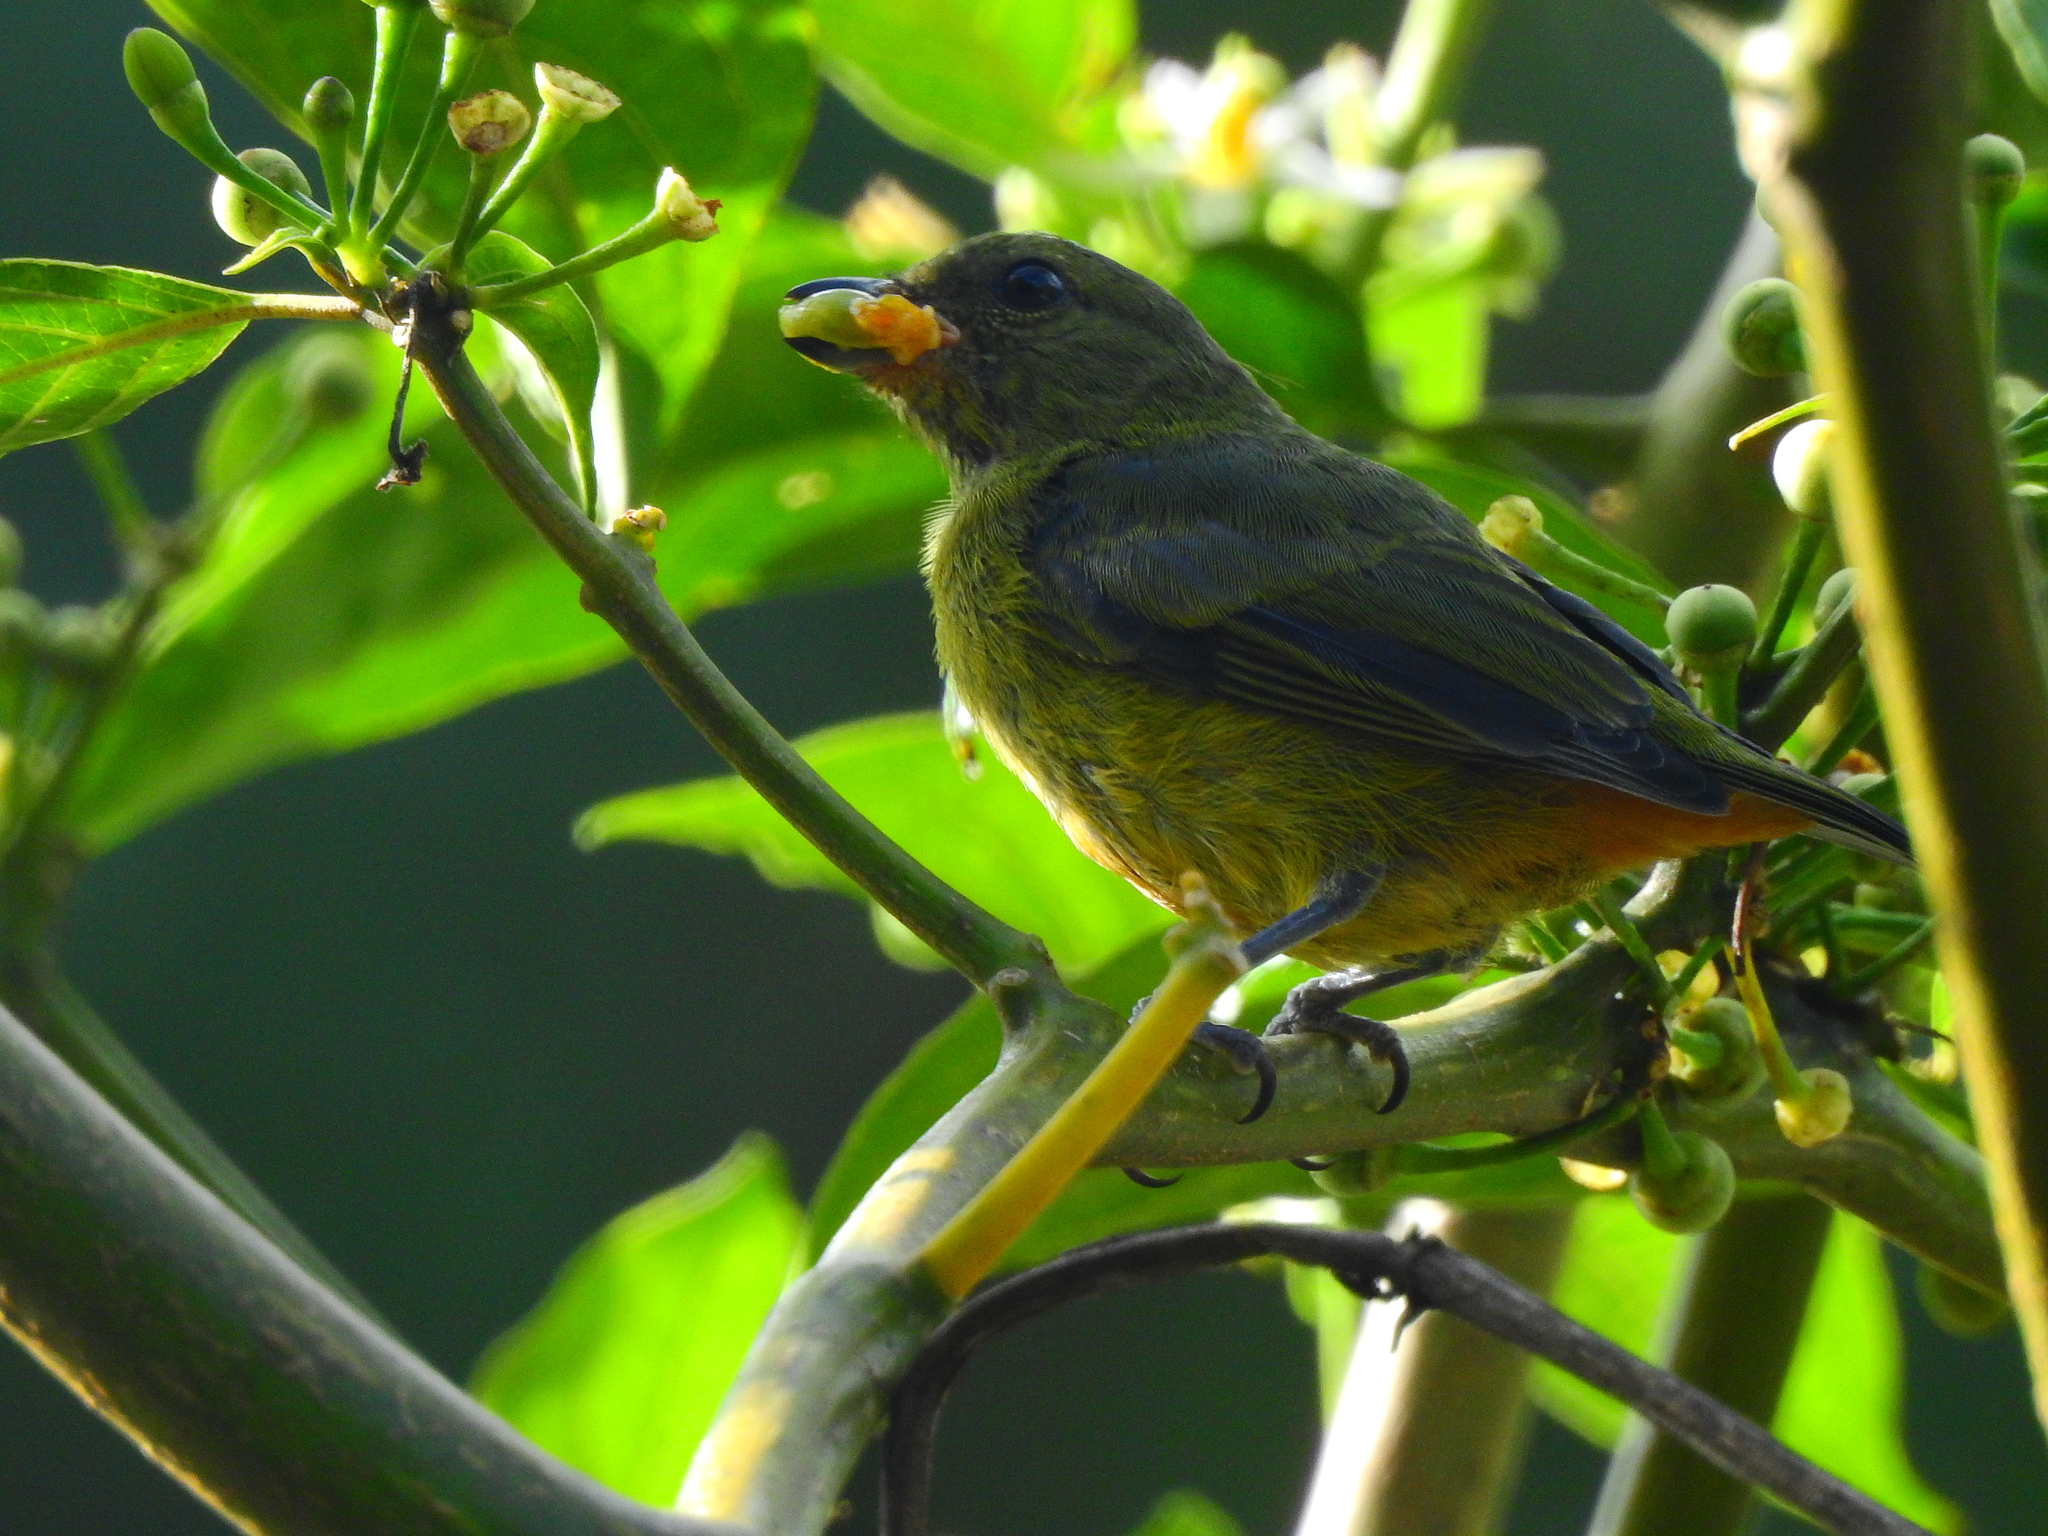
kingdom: Animalia
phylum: Chordata
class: Aves
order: Passeriformes
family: Fringillidae
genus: Euphonia
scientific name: Euphonia gouldi
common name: Olive-backed euphonia
